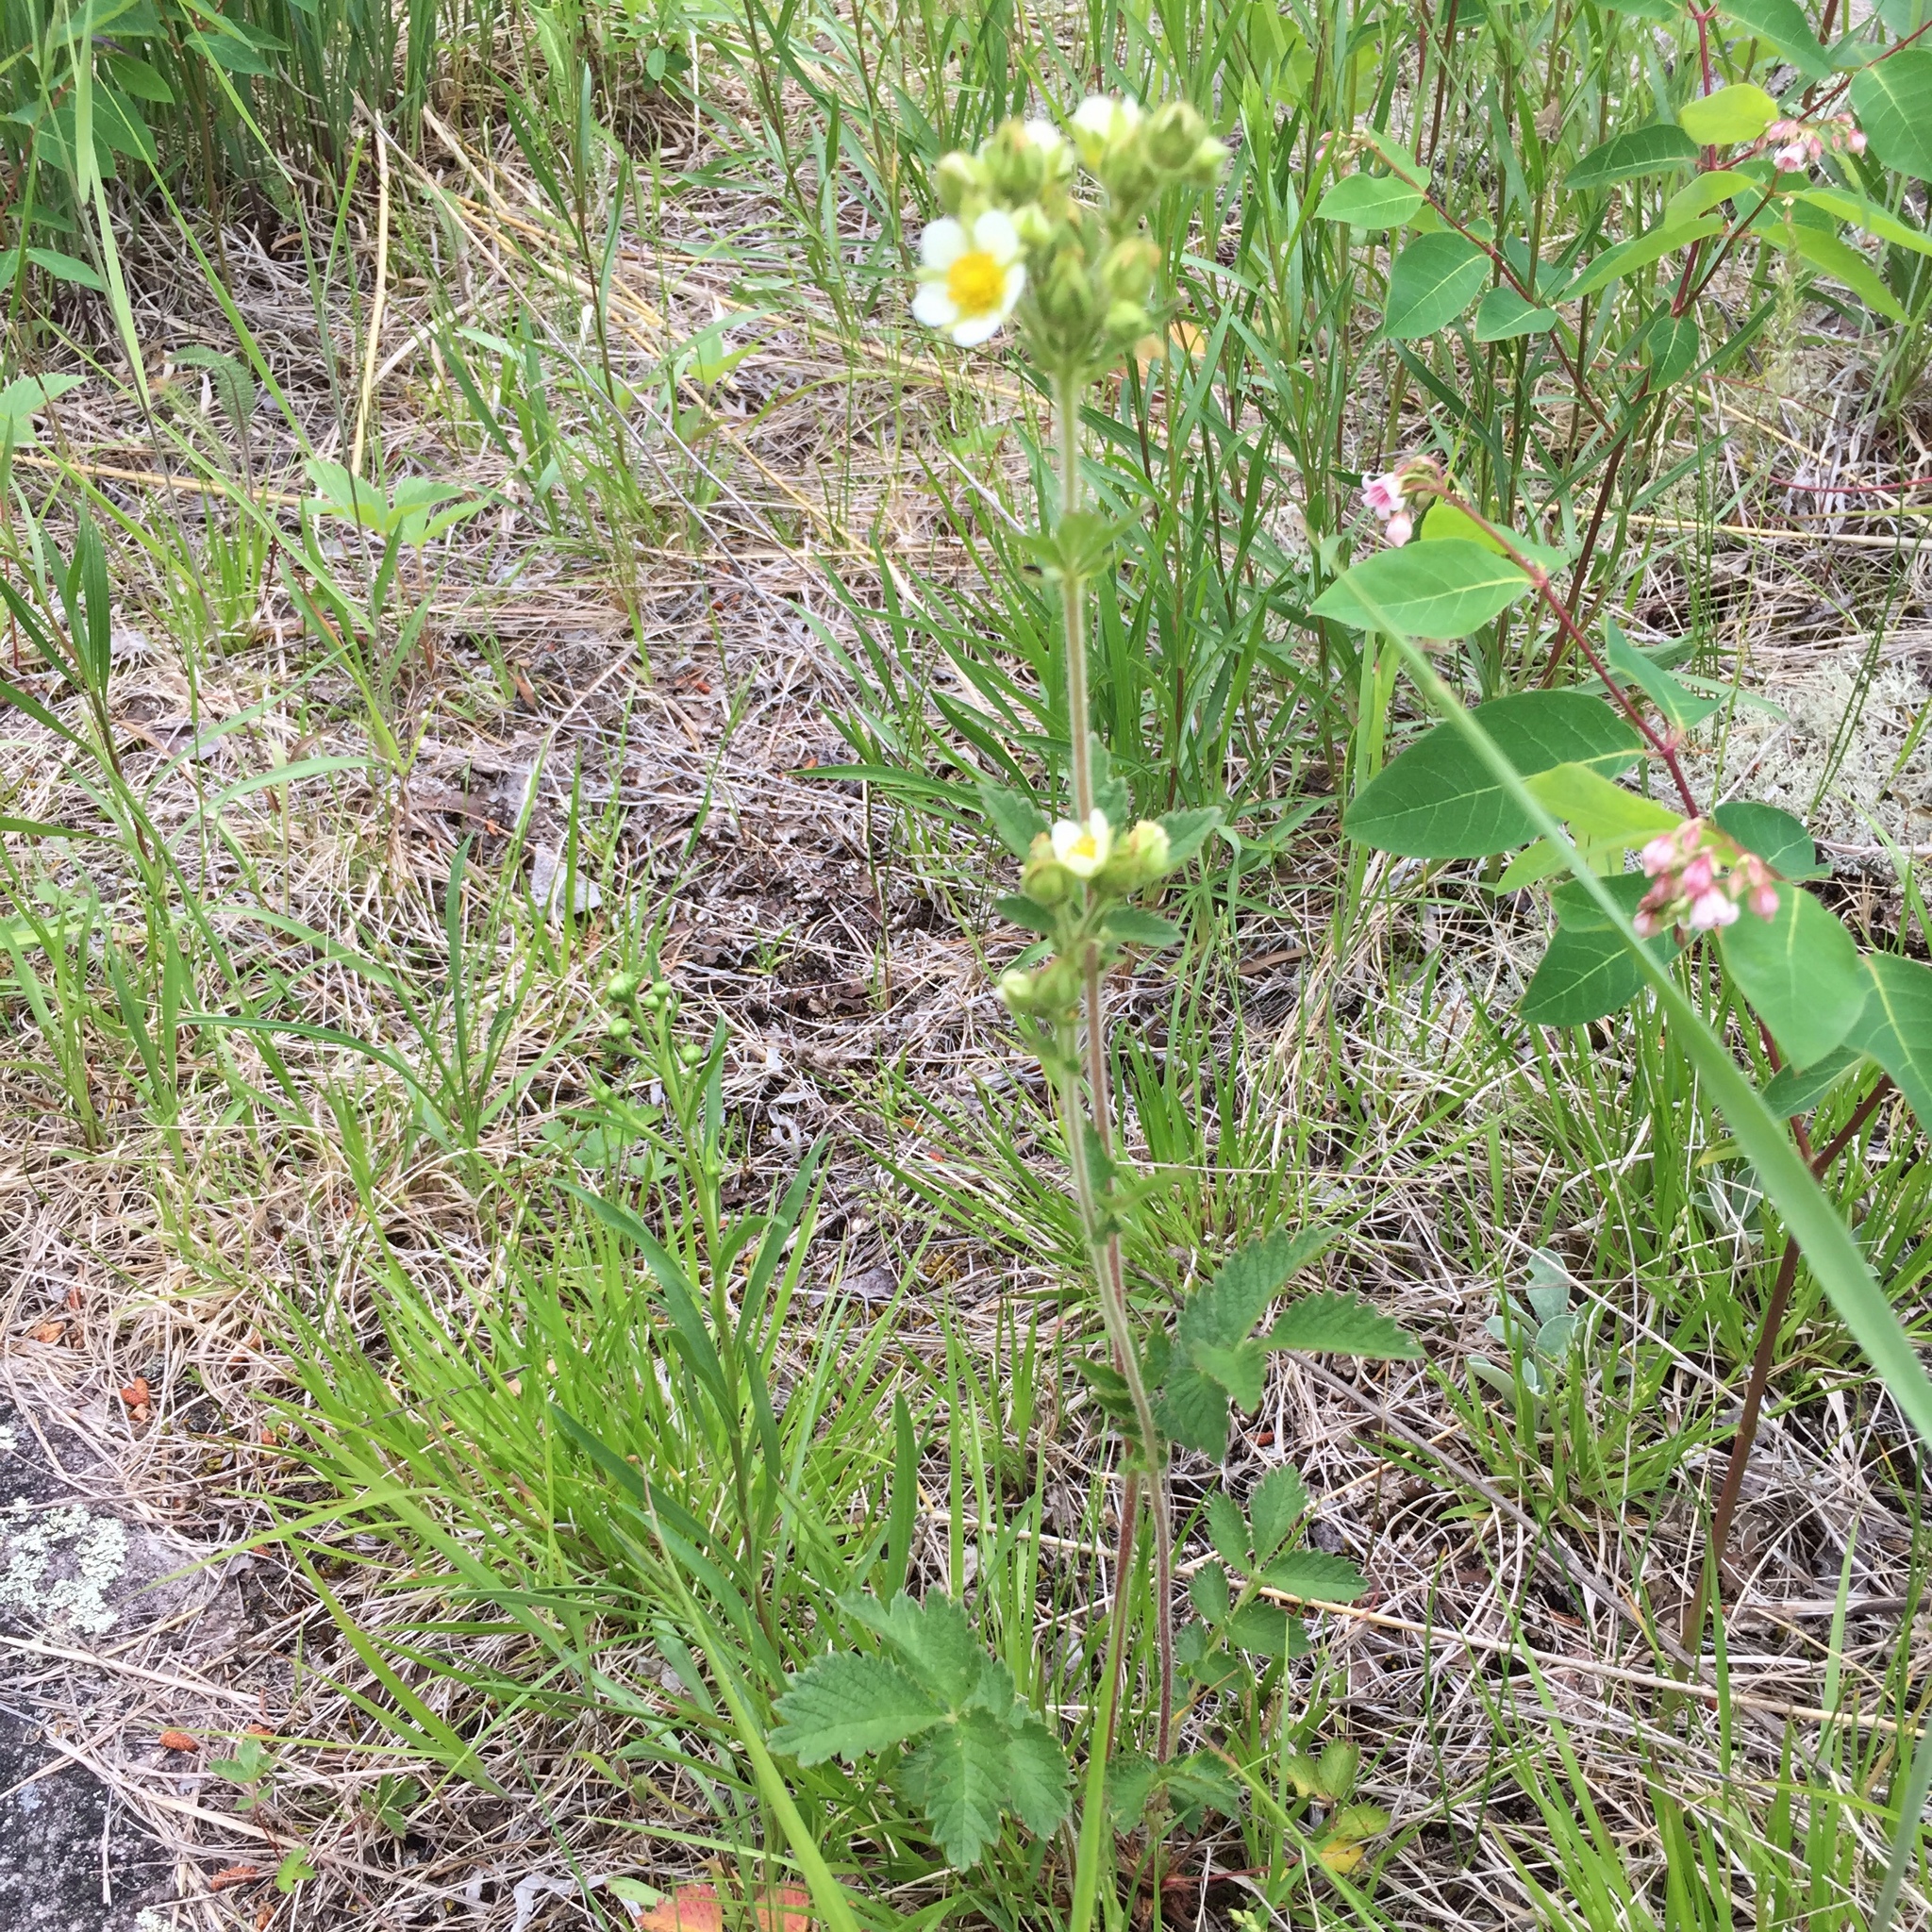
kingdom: Plantae
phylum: Tracheophyta
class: Magnoliopsida
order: Rosales
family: Rosaceae
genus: Drymocallis
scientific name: Drymocallis arguta
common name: Tall cinquefoil
